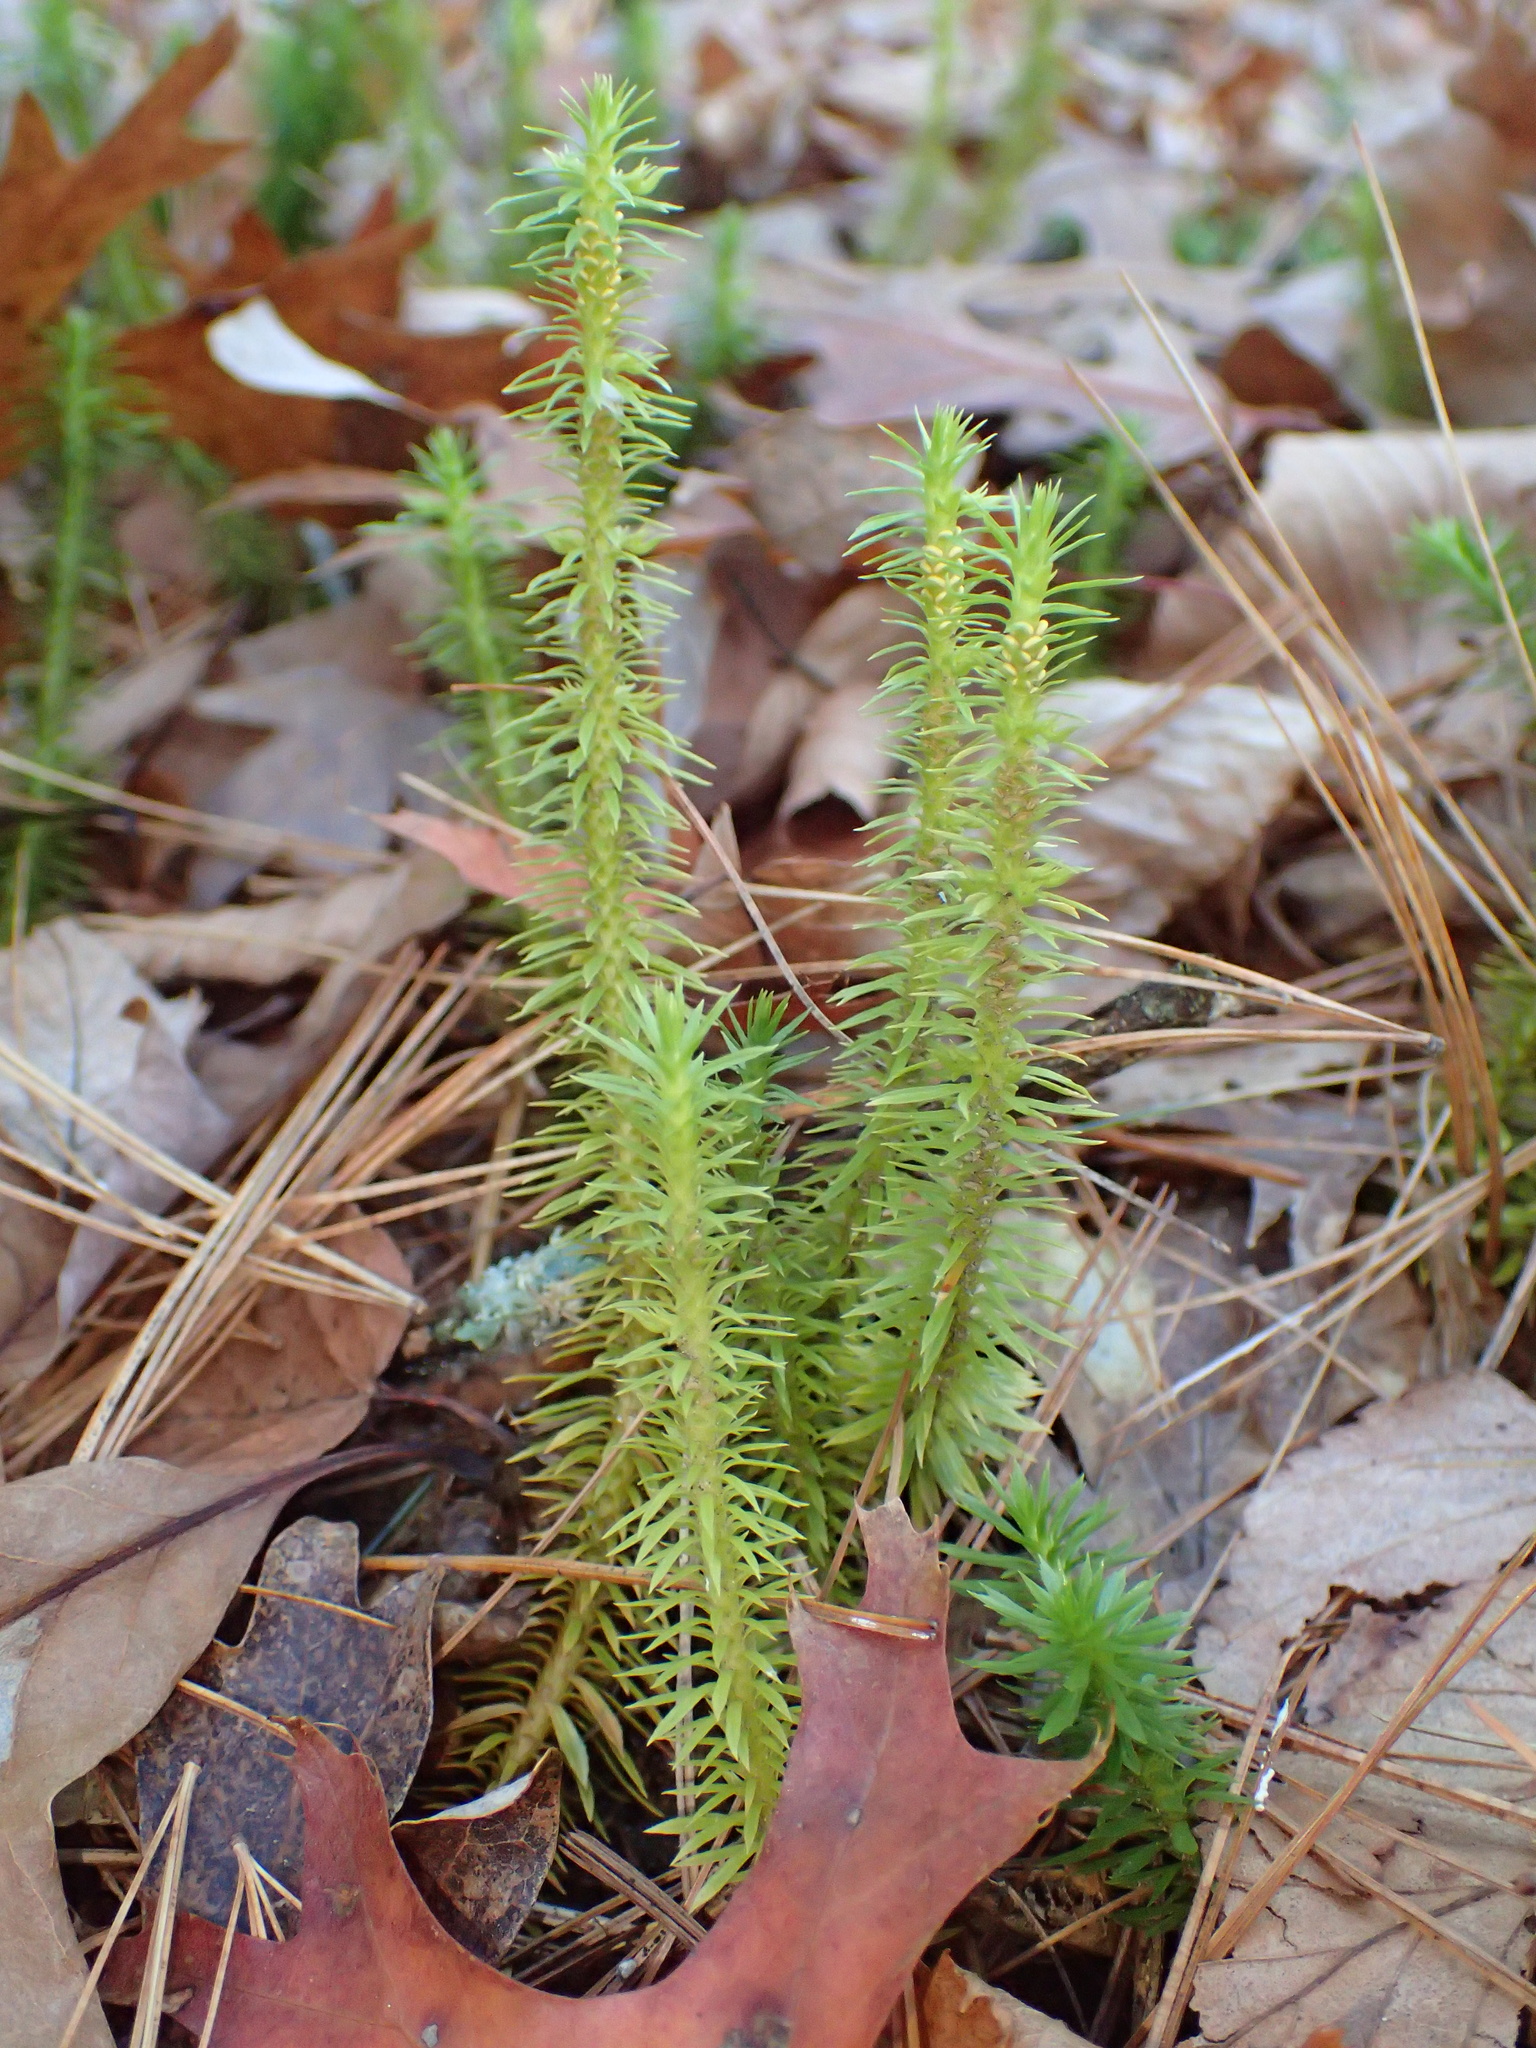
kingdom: Plantae
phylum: Tracheophyta
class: Lycopodiopsida
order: Lycopodiales
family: Lycopodiaceae
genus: Huperzia
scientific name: Huperzia lucidula
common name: Shining clubmoss
